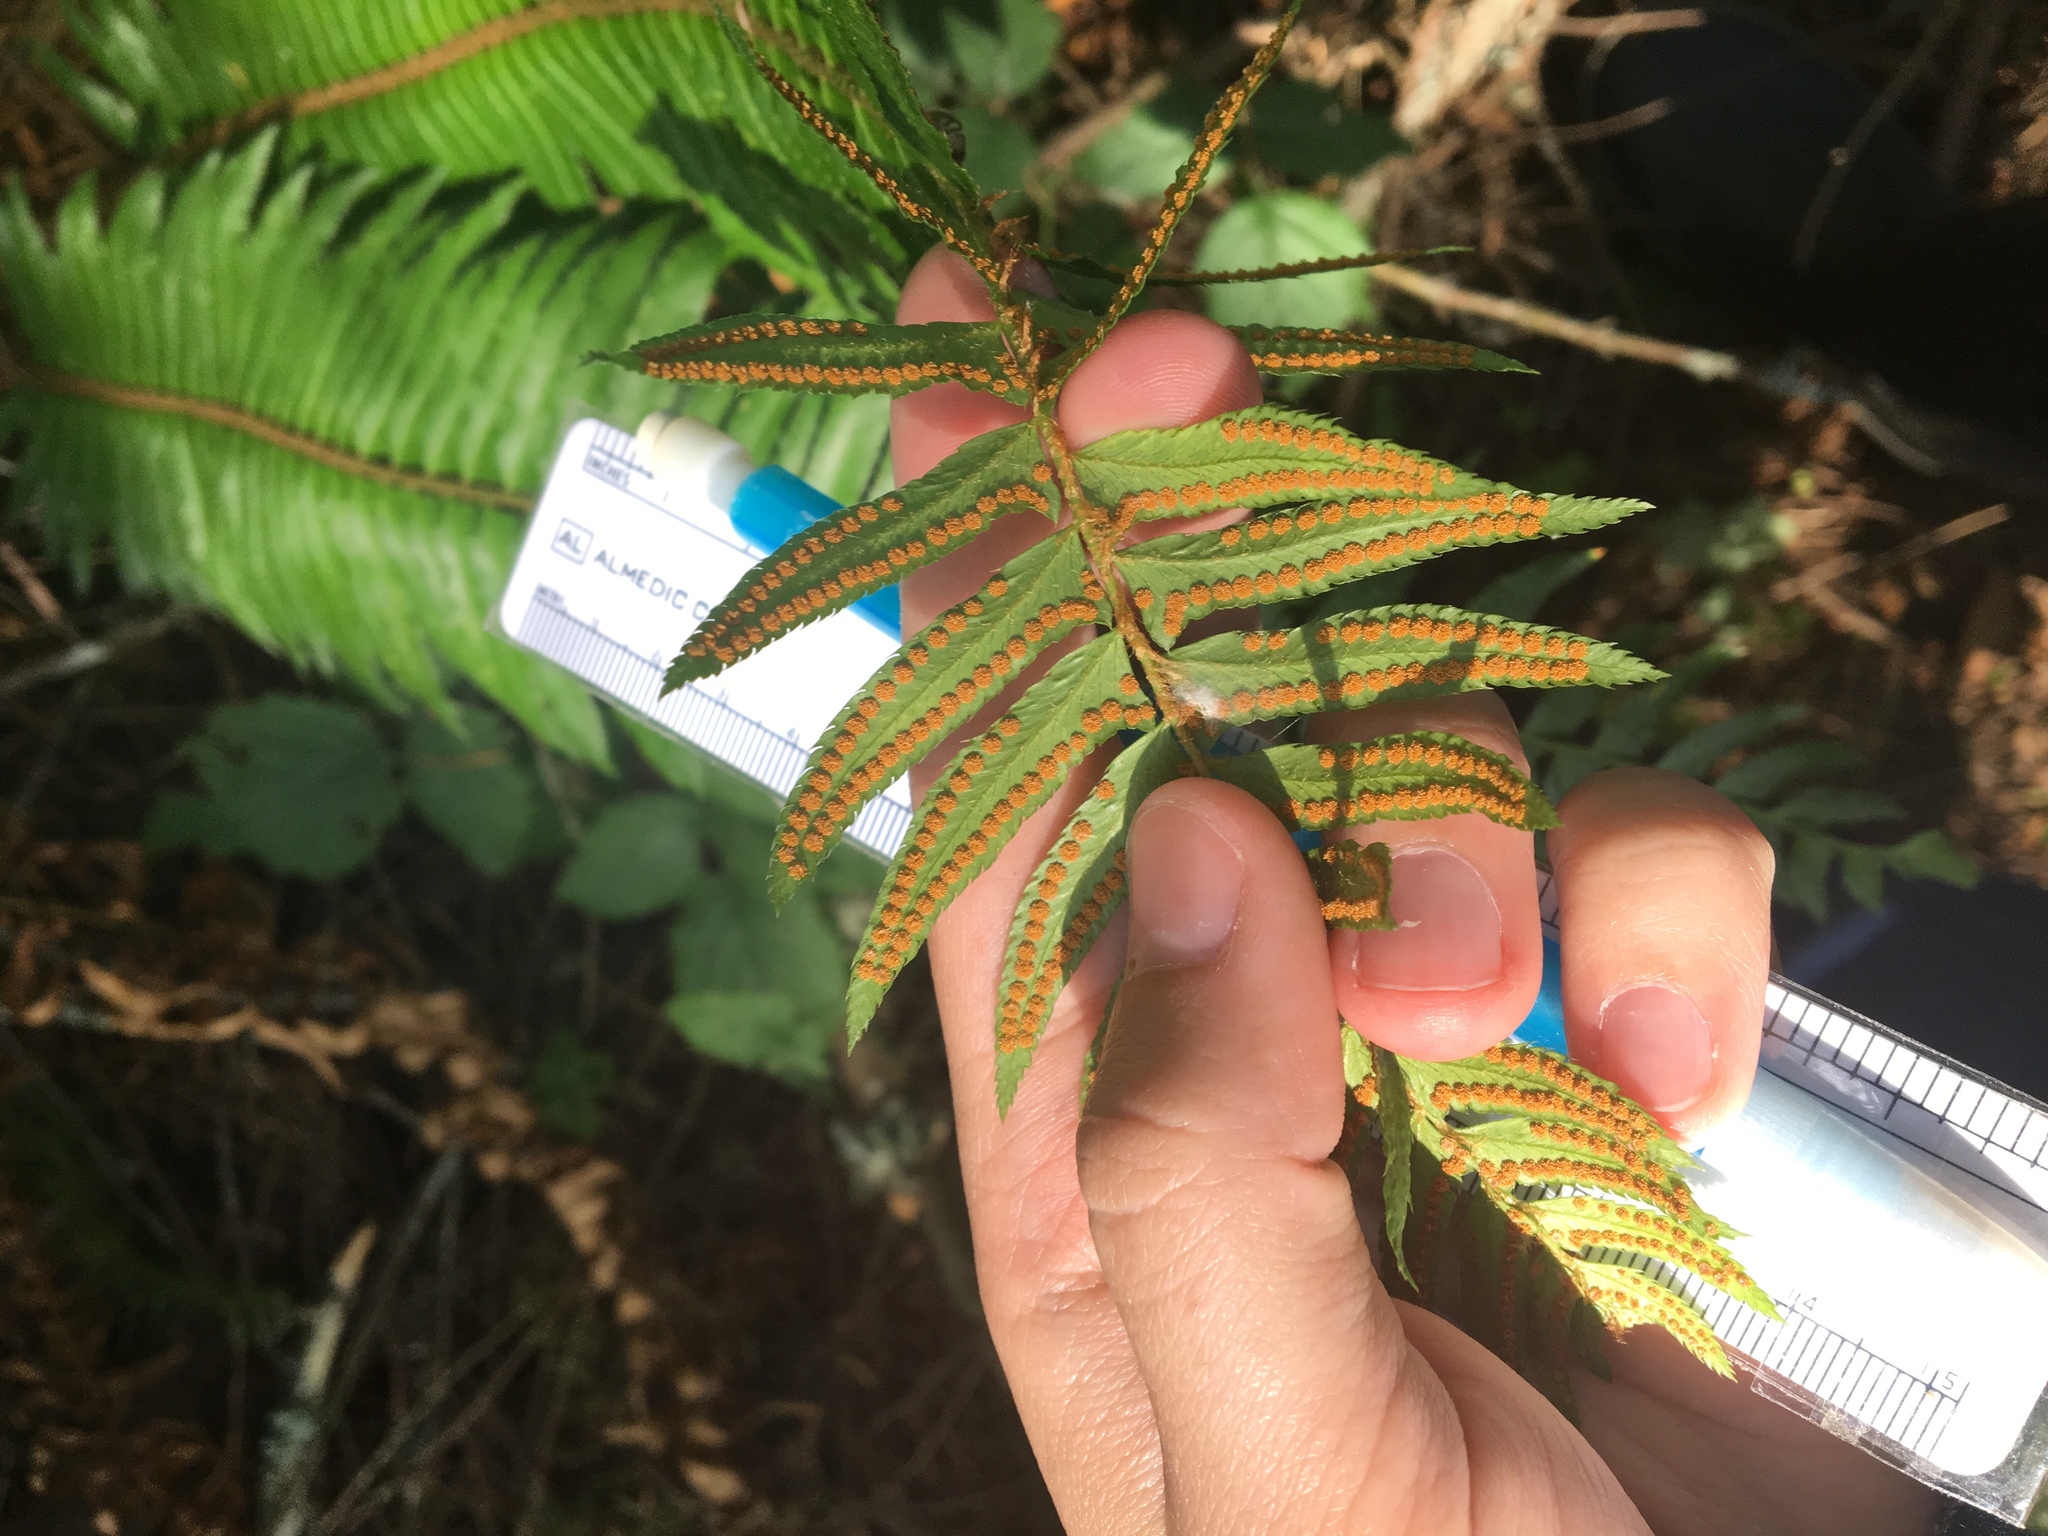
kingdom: Plantae
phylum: Tracheophyta
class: Polypodiopsida
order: Polypodiales
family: Dryopteridaceae
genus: Polystichum
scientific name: Polystichum munitum
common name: Western sword-fern
